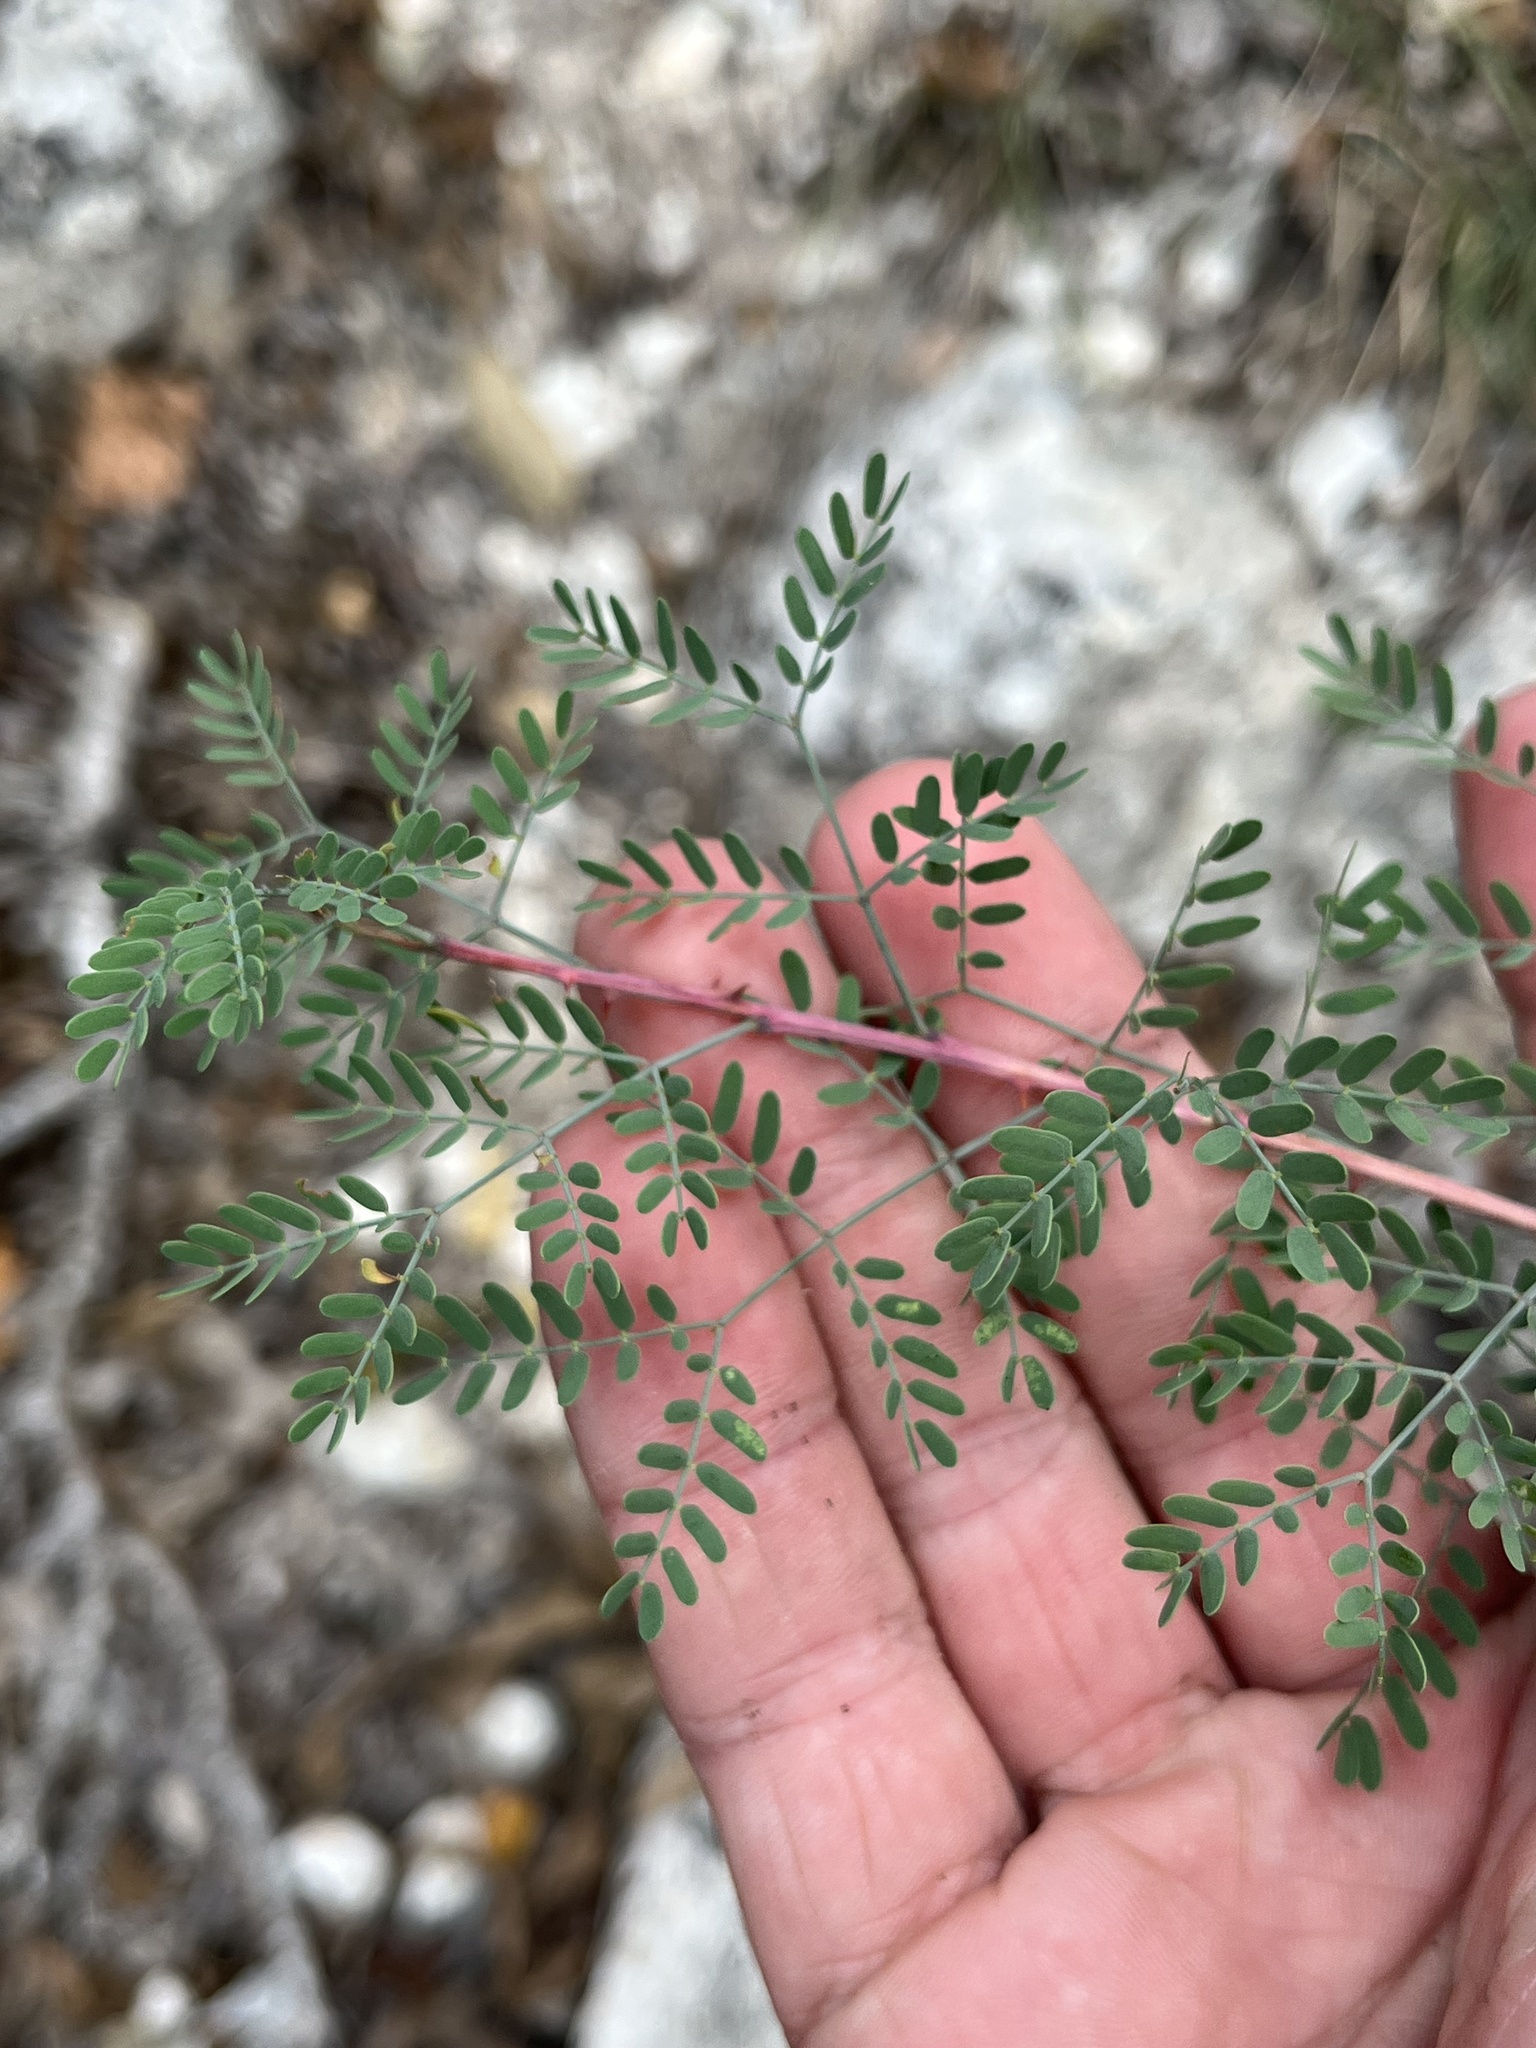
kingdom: Plantae
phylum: Tracheophyta
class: Magnoliopsida
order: Fabales
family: Fabaceae
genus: Mimosa
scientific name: Mimosa borealis
